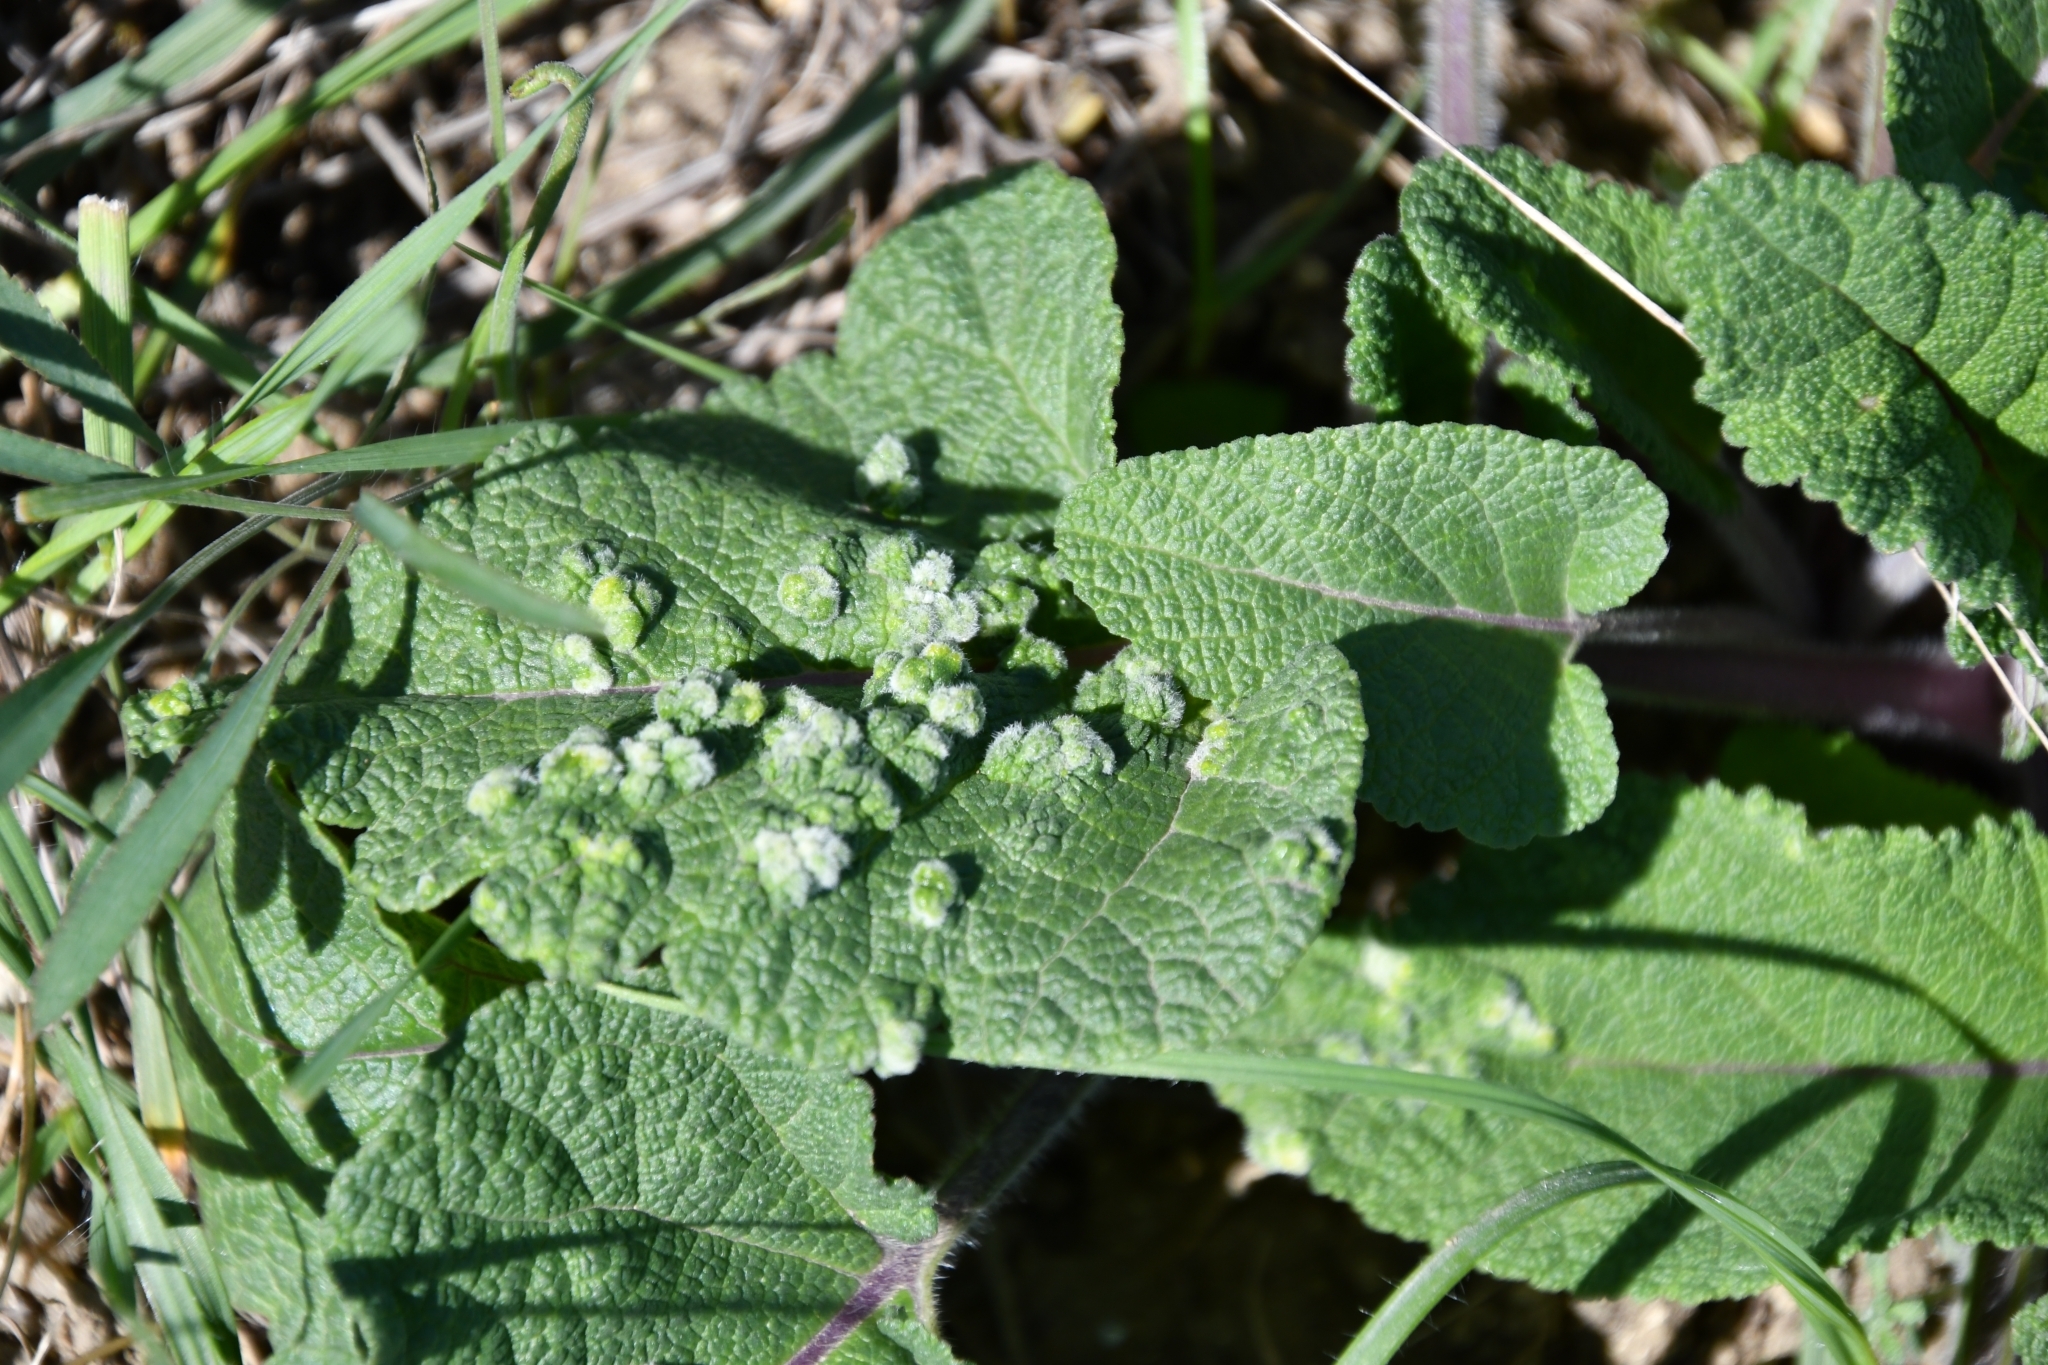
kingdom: Animalia
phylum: Arthropoda
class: Arachnida
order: Trombidiformes
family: Eriophyidae
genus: Aceria
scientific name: Aceria salviae
